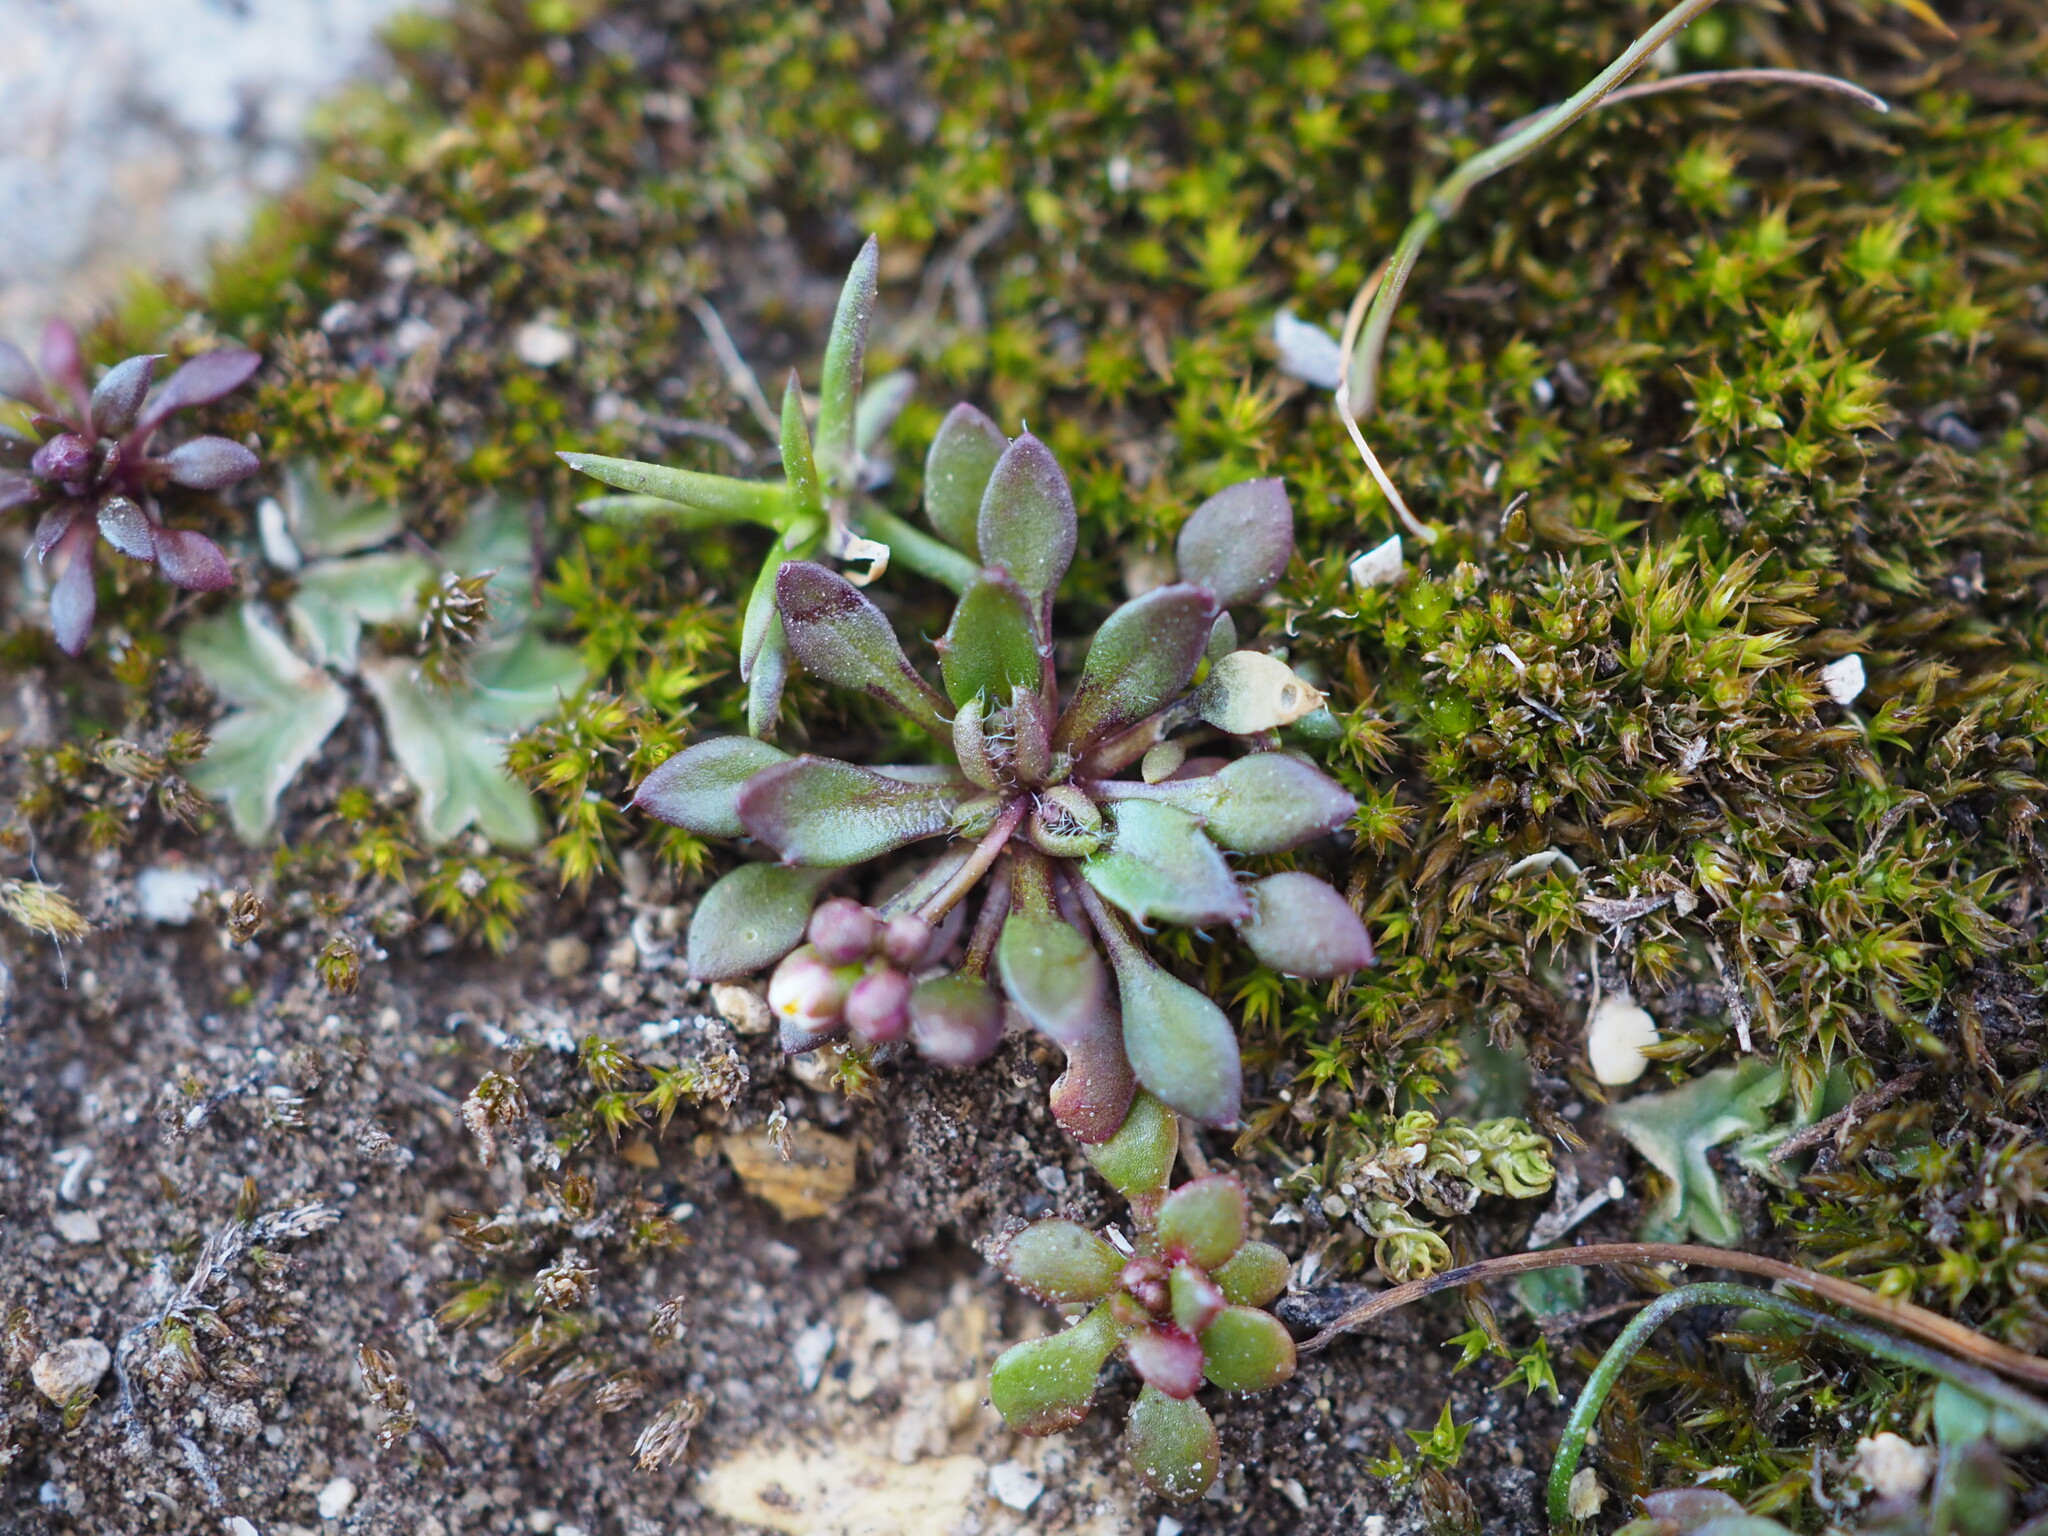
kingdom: Plantae
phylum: Tracheophyta
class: Magnoliopsida
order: Brassicales
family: Brassicaceae
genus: Draba
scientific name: Draba verna
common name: Spring draba
